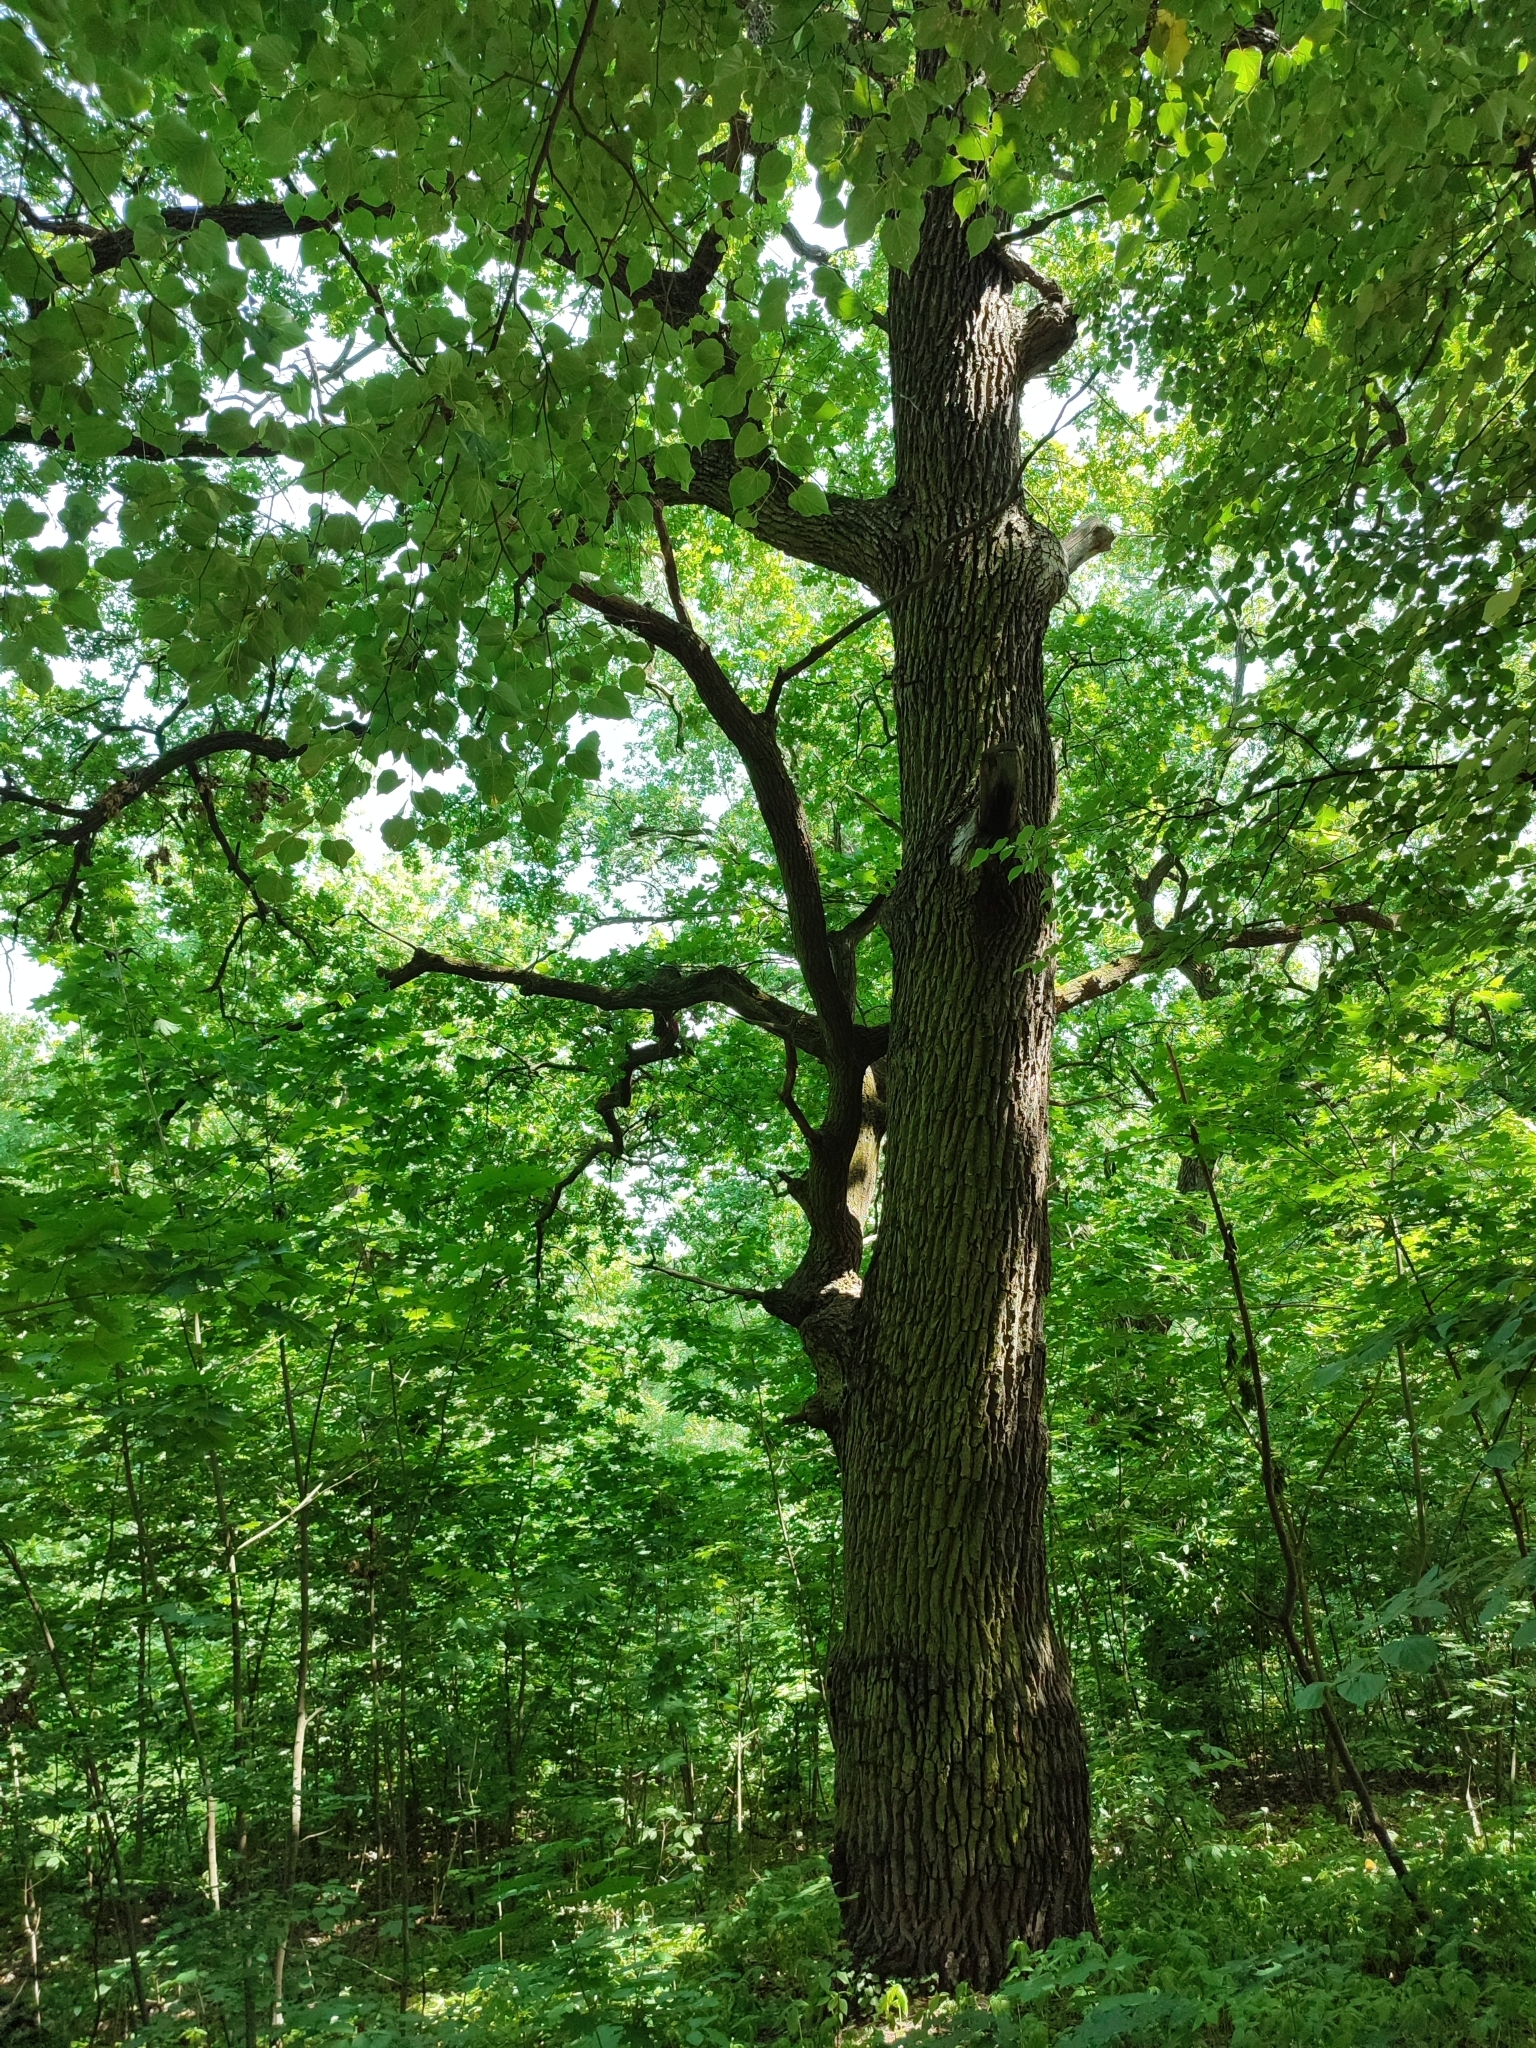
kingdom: Plantae
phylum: Tracheophyta
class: Magnoliopsida
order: Fagales
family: Fagaceae
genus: Quercus
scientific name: Quercus robur
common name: Pedunculate oak
